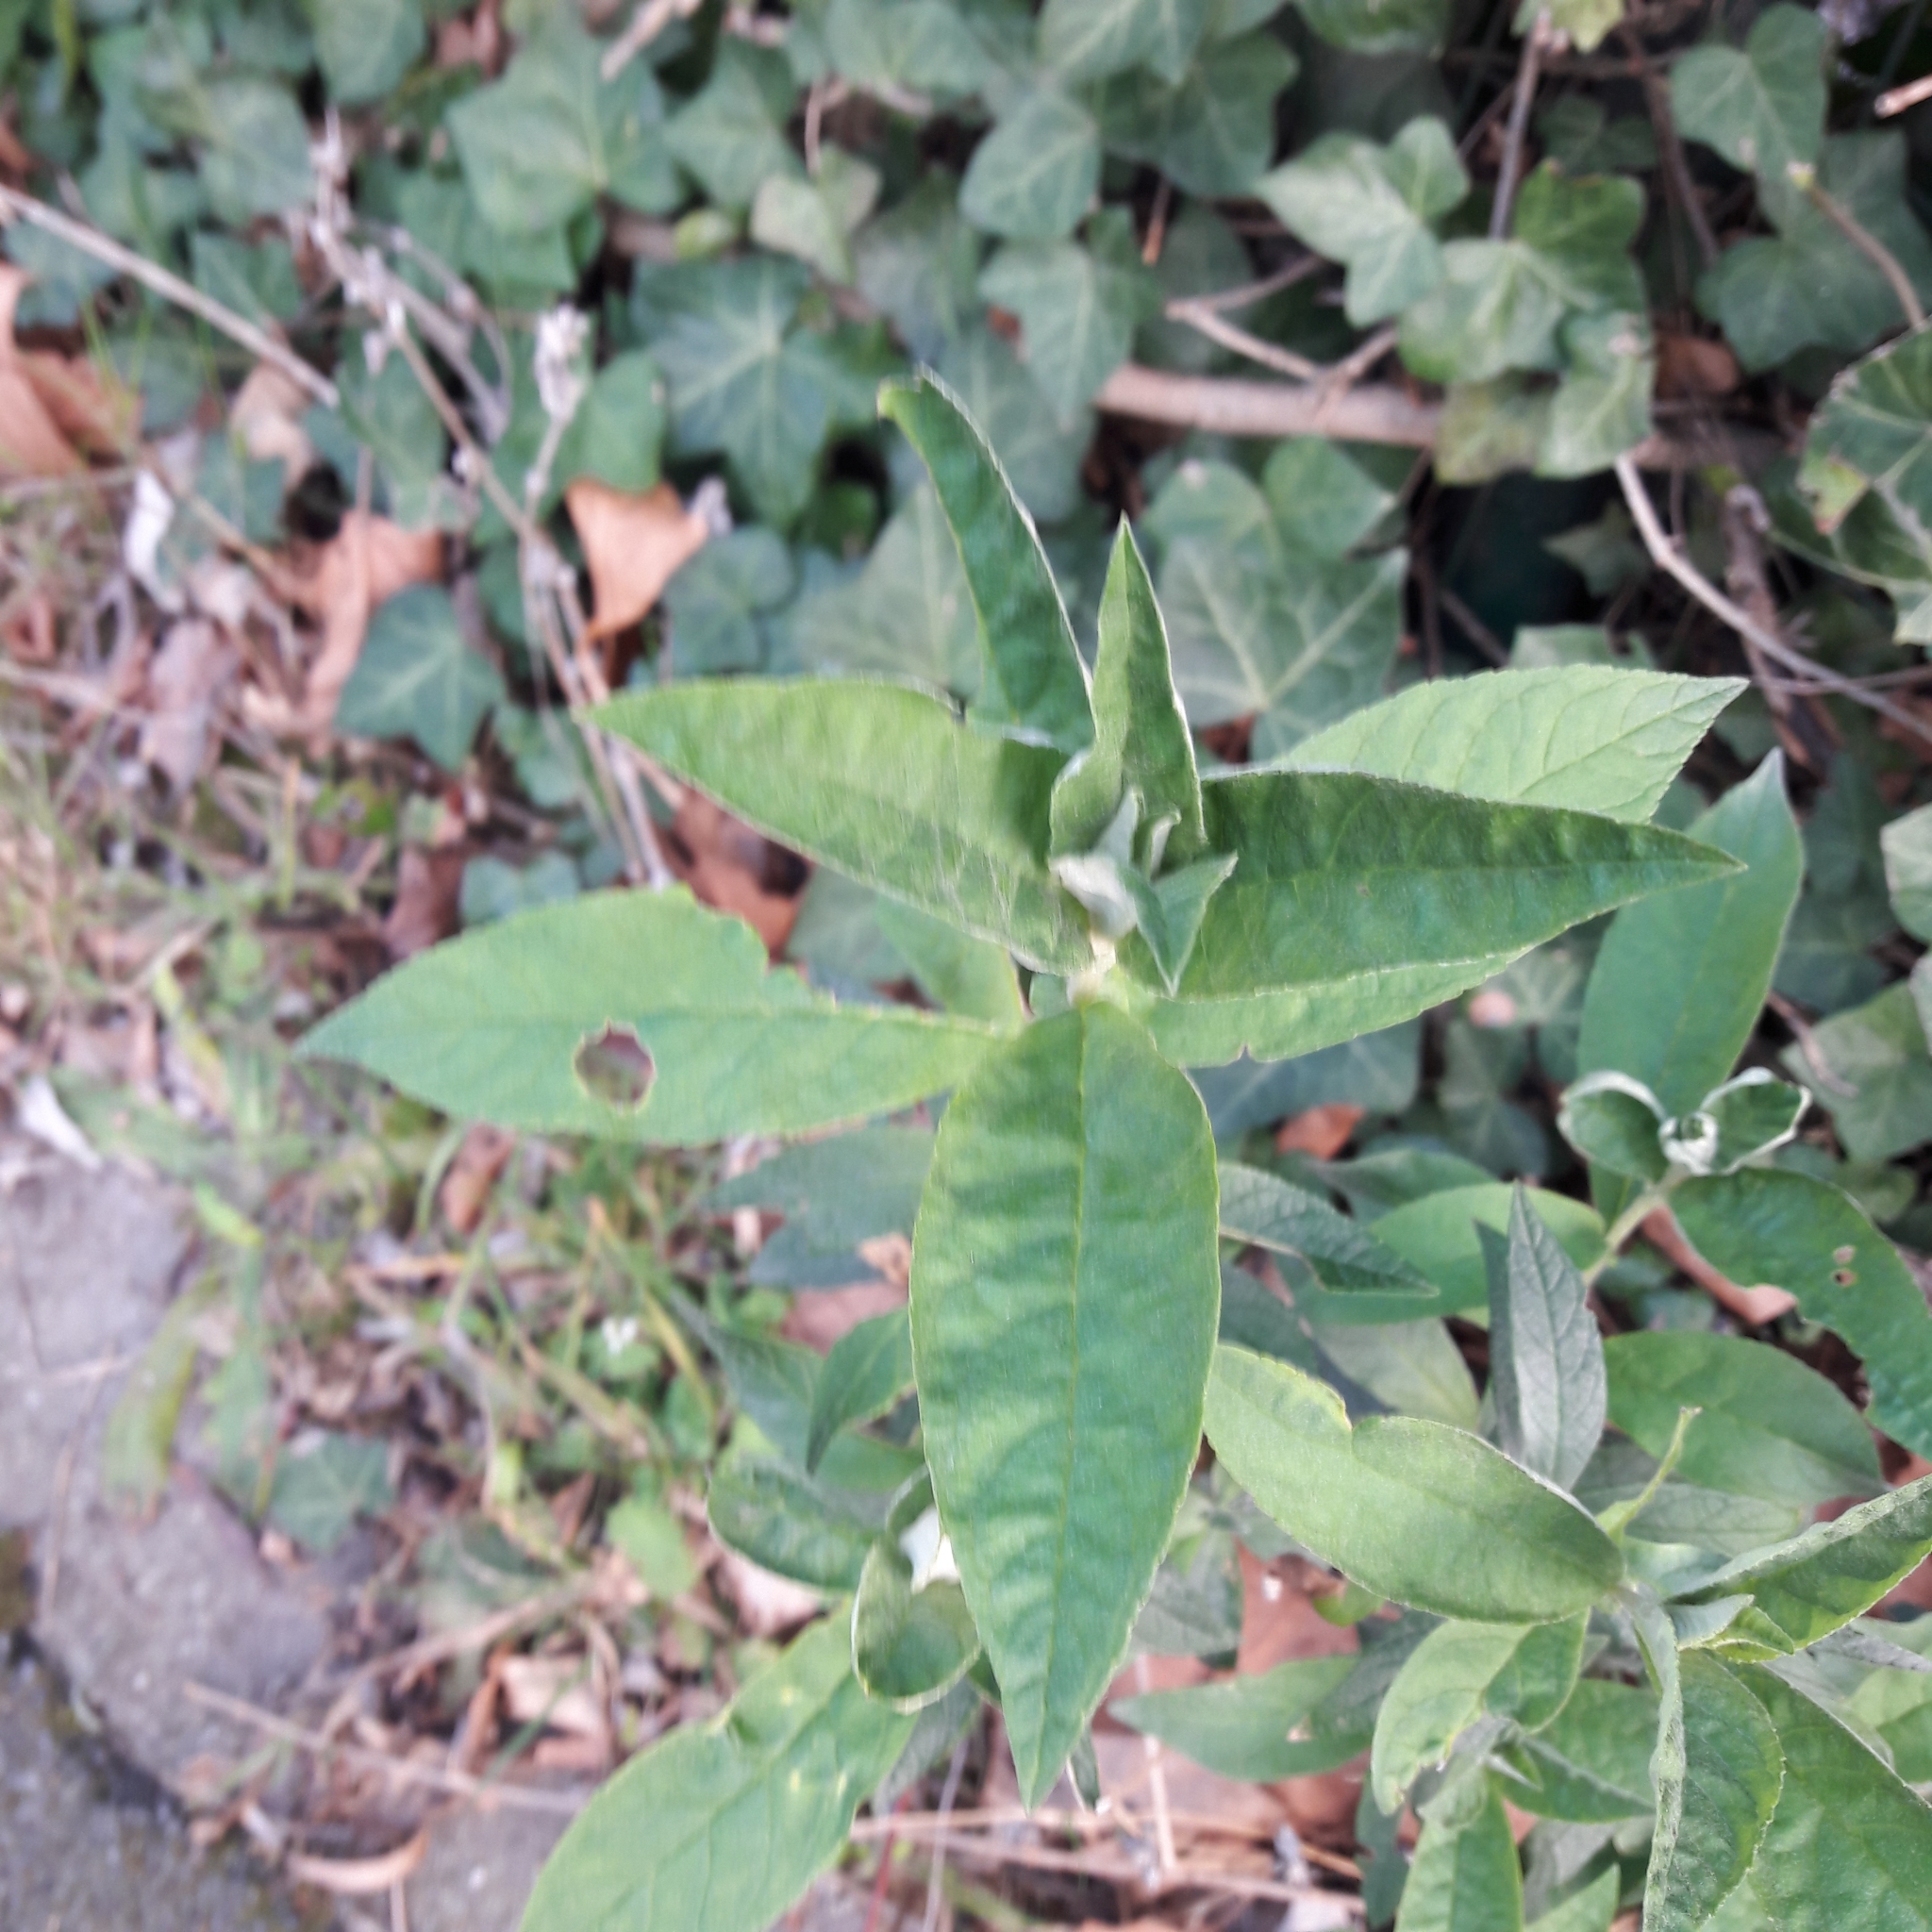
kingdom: Plantae
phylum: Tracheophyta
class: Magnoliopsida
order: Lamiales
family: Scrophulariaceae
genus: Buddleja
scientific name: Buddleja davidii
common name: Butterfly-bush
